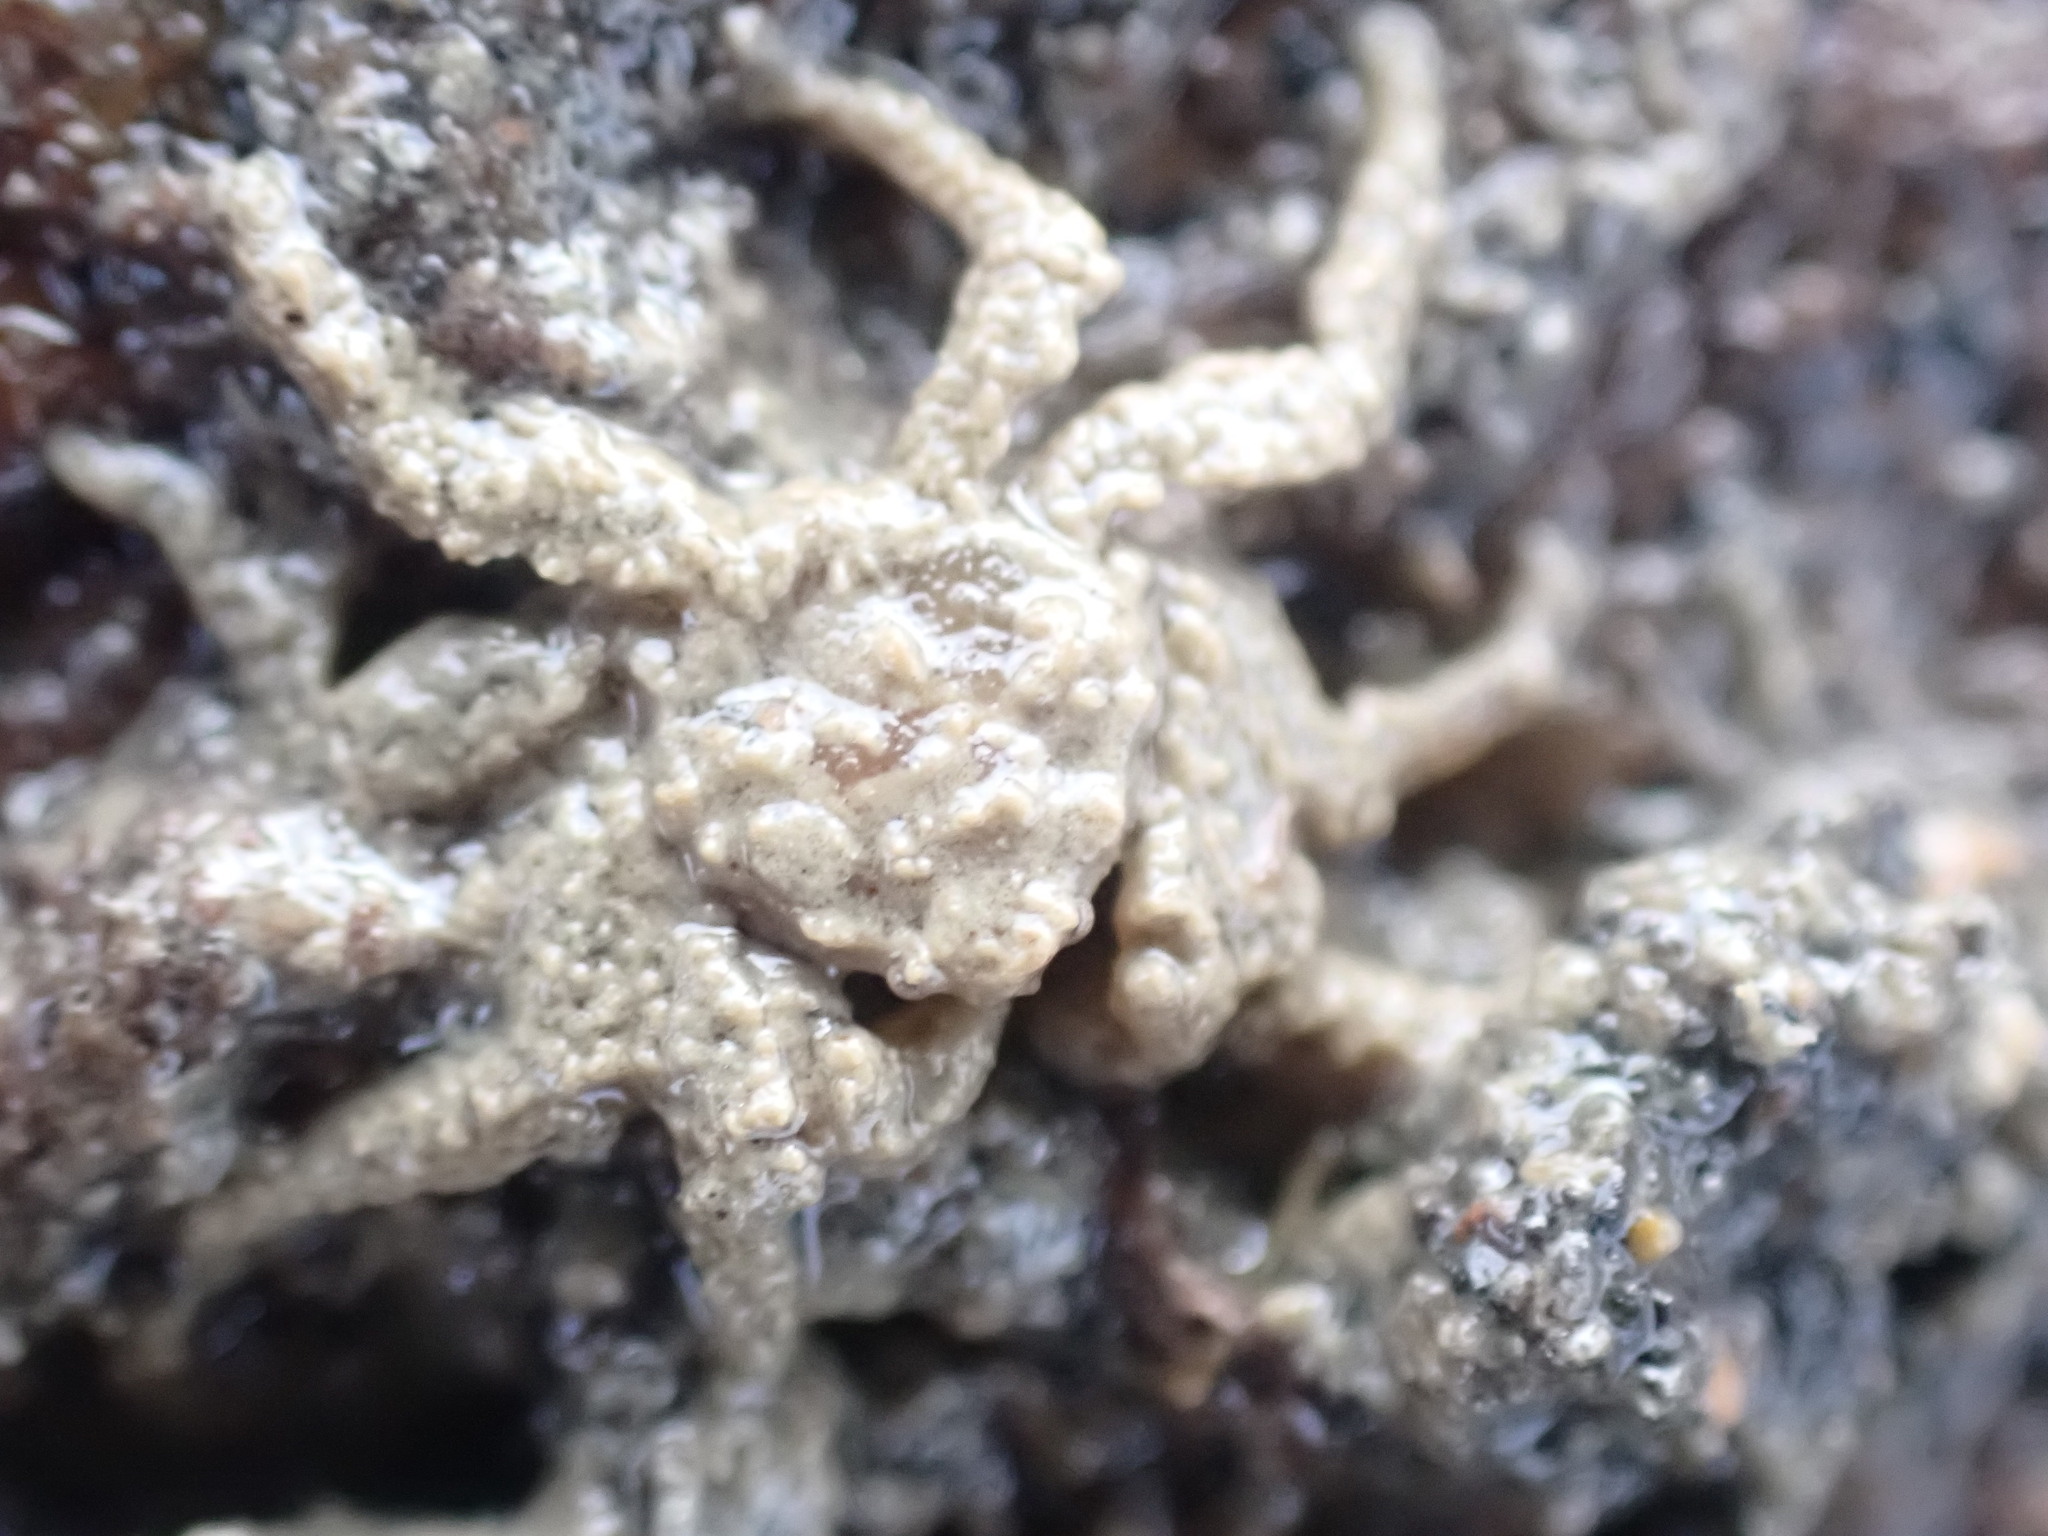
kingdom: Animalia
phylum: Arthropoda
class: Malacostraca
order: Decapoda
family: Hymenosomatidae
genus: Neohymenicus
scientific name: Neohymenicus pubescens
